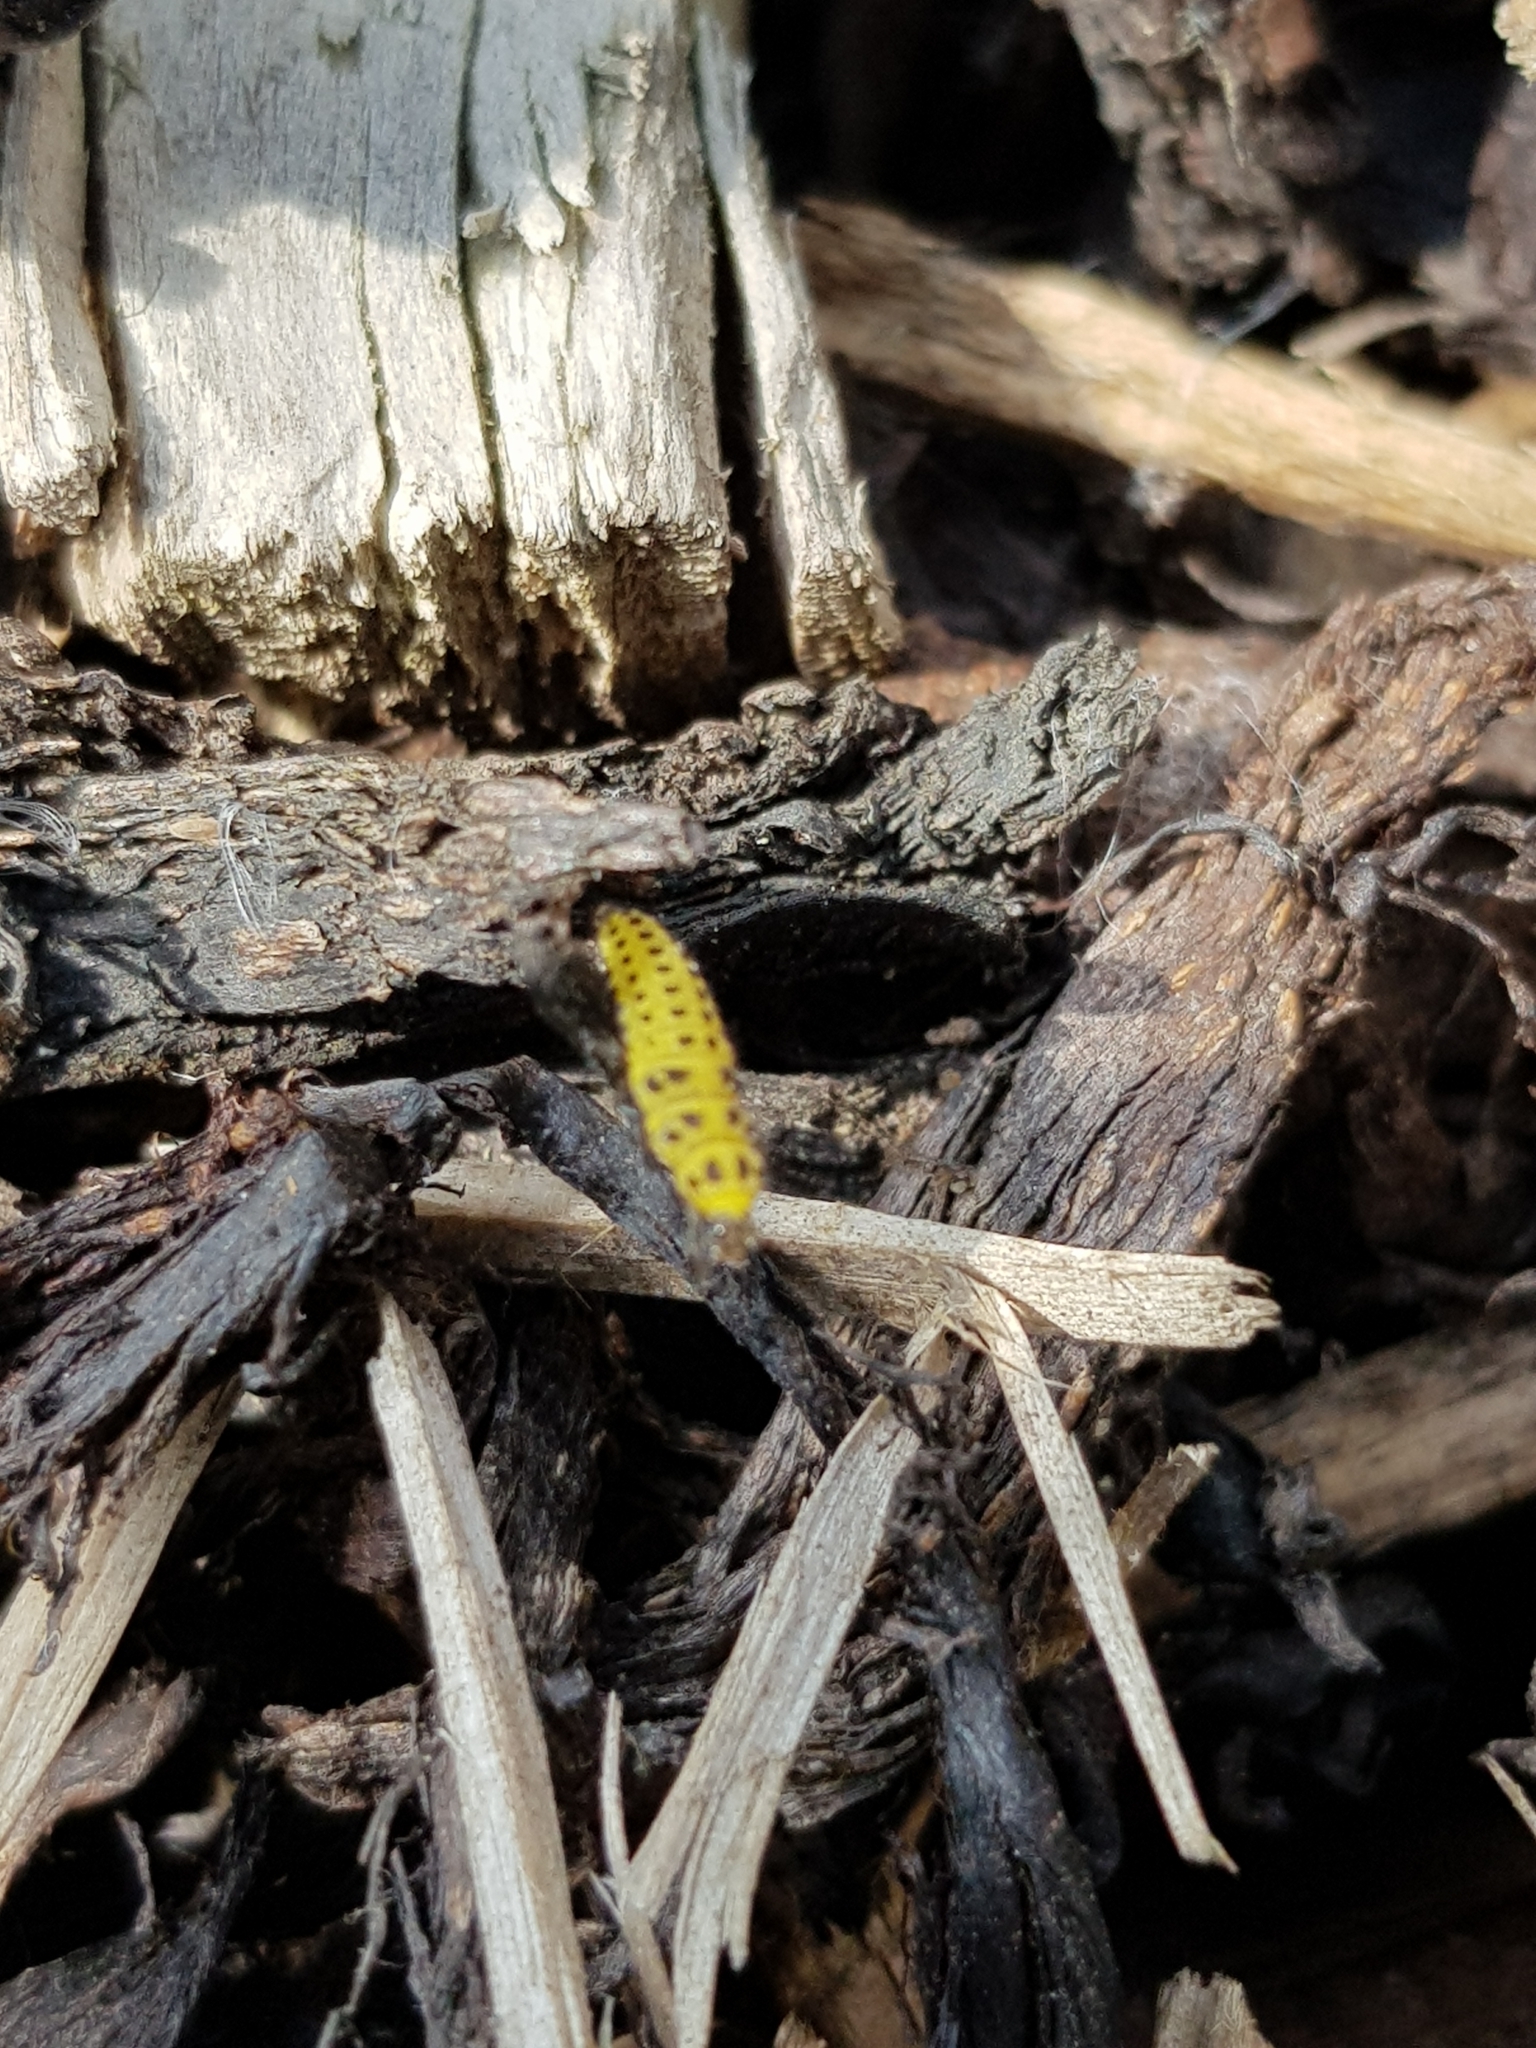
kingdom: Animalia
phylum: Arthropoda
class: Insecta
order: Coleoptera
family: Coccinellidae
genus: Psyllobora
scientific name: Psyllobora vigintiduopunctata
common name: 22-spot ladybird
